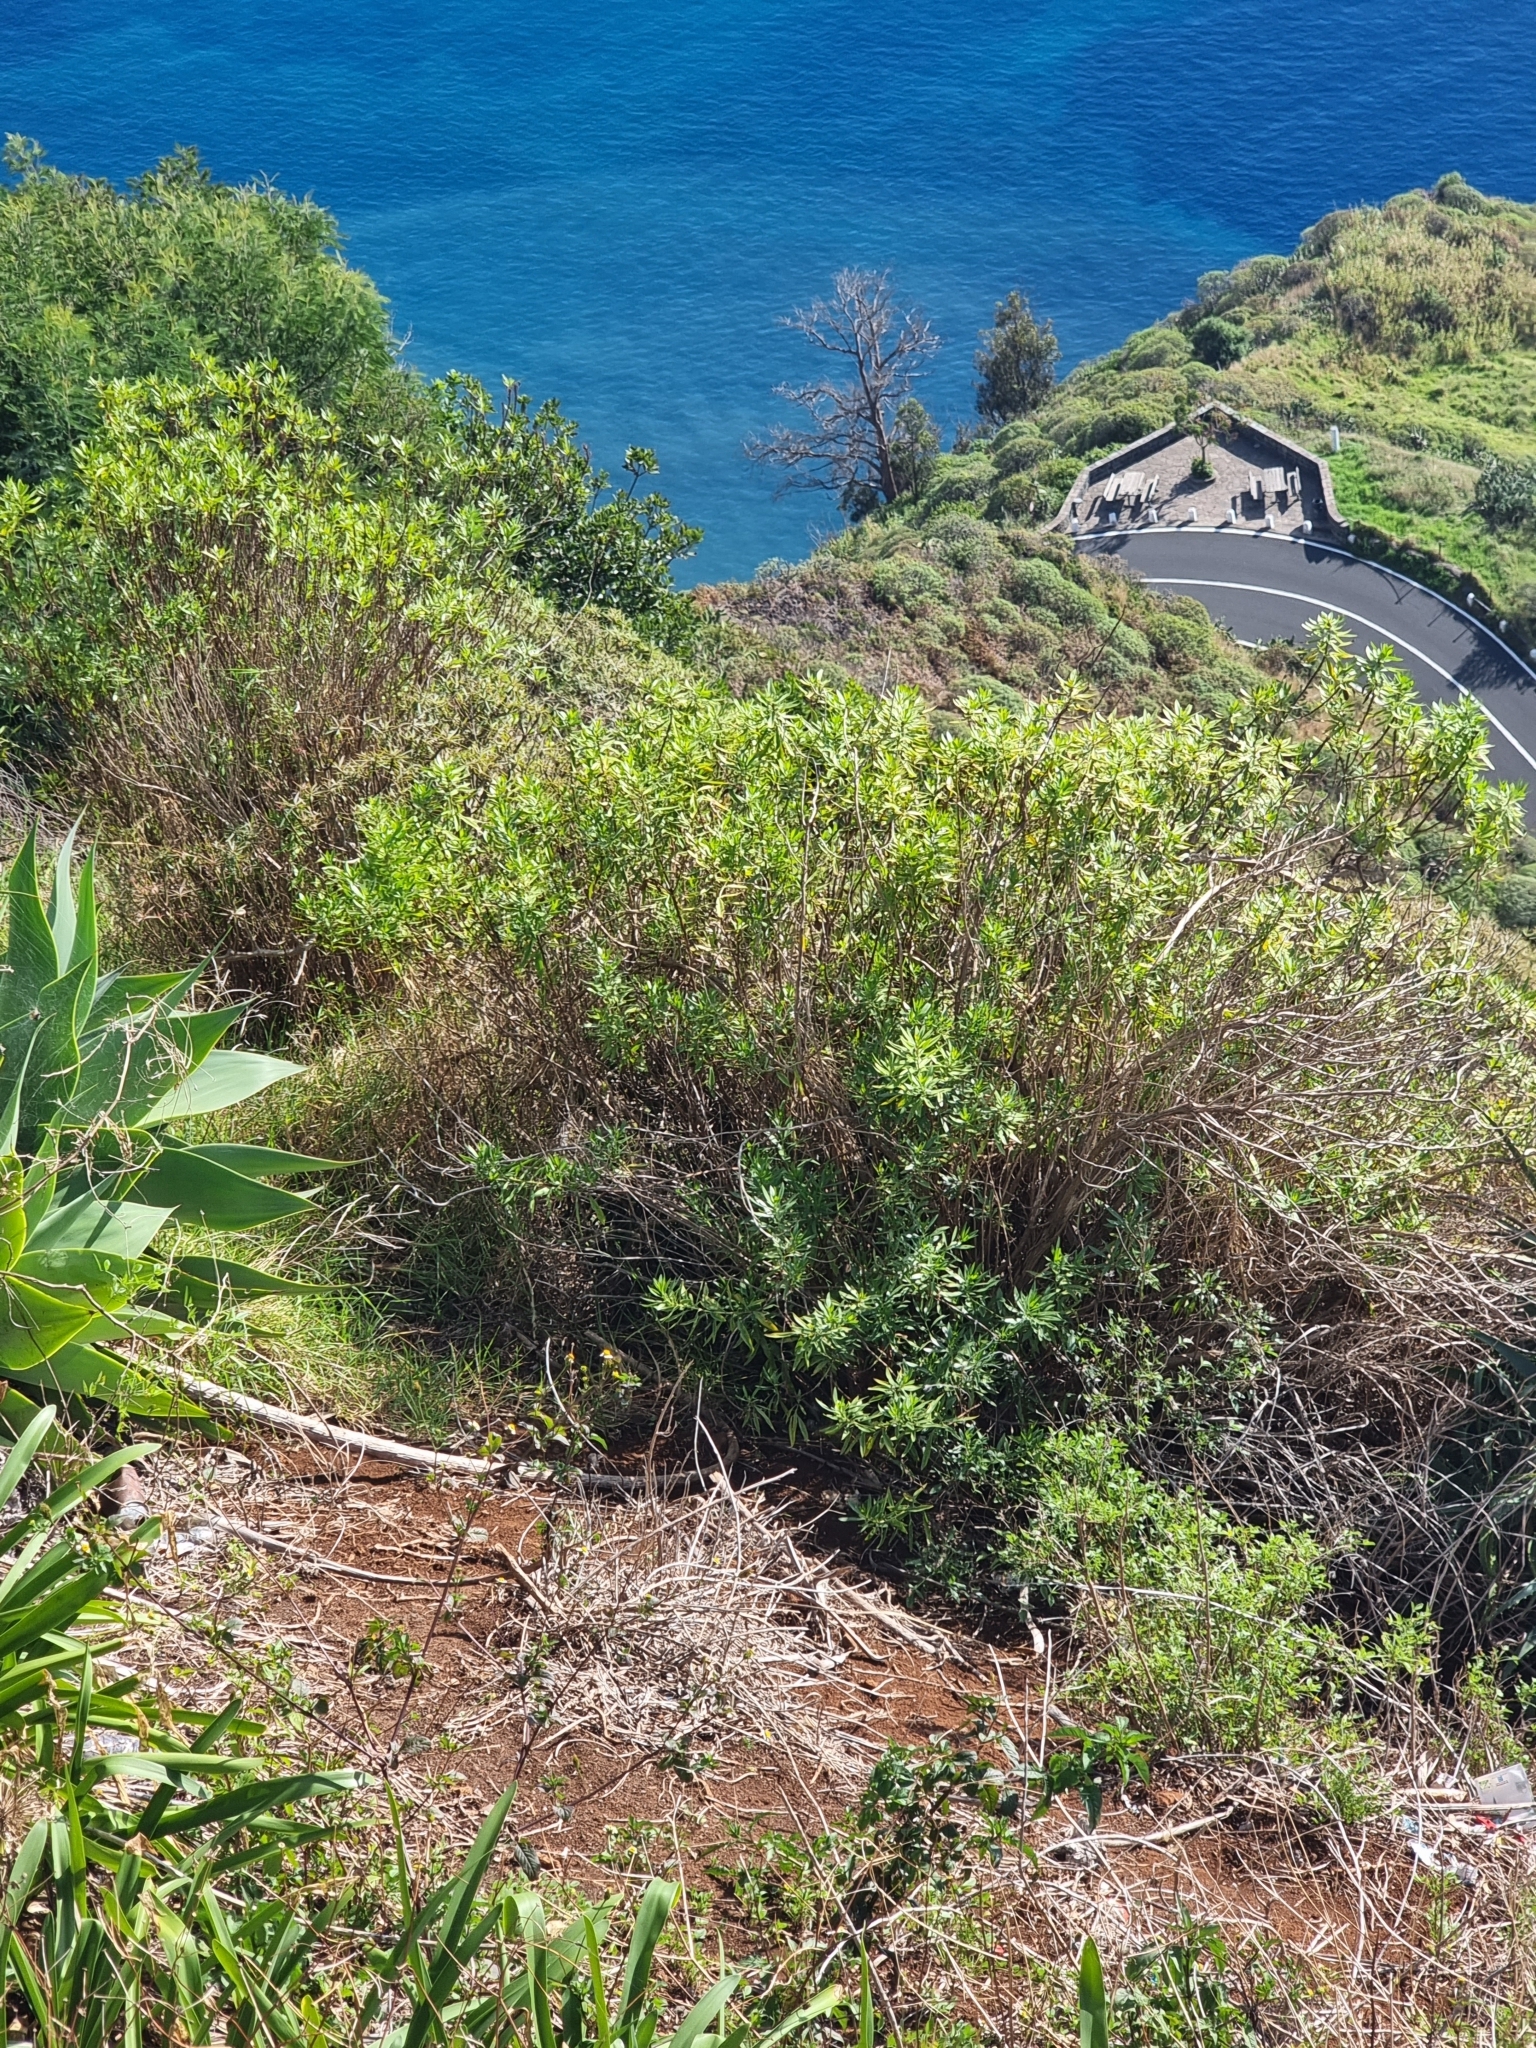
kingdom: Plantae
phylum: Tracheophyta
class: Magnoliopsida
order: Lamiales
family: Plantaginaceae
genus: Globularia
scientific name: Globularia salicina
